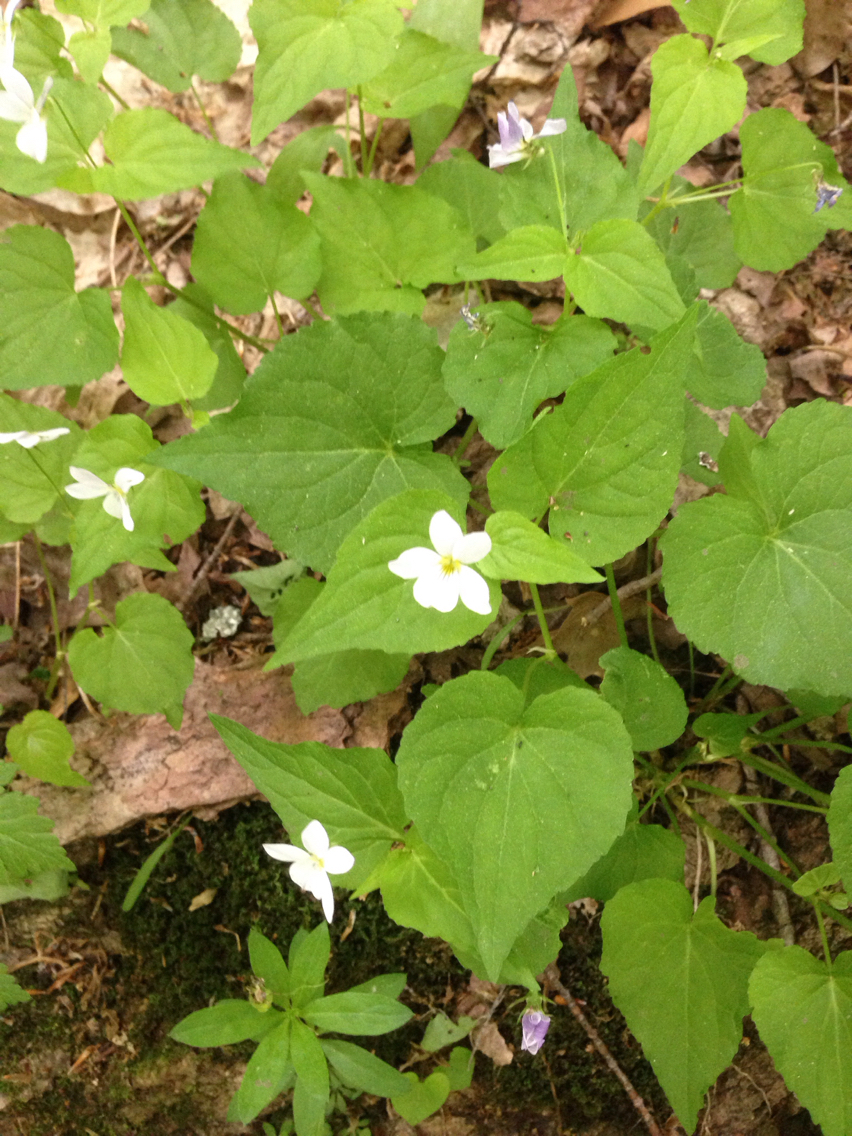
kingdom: Plantae
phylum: Tracheophyta
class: Magnoliopsida
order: Malpighiales
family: Violaceae
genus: Viola
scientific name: Viola canadensis
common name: Canada violet
